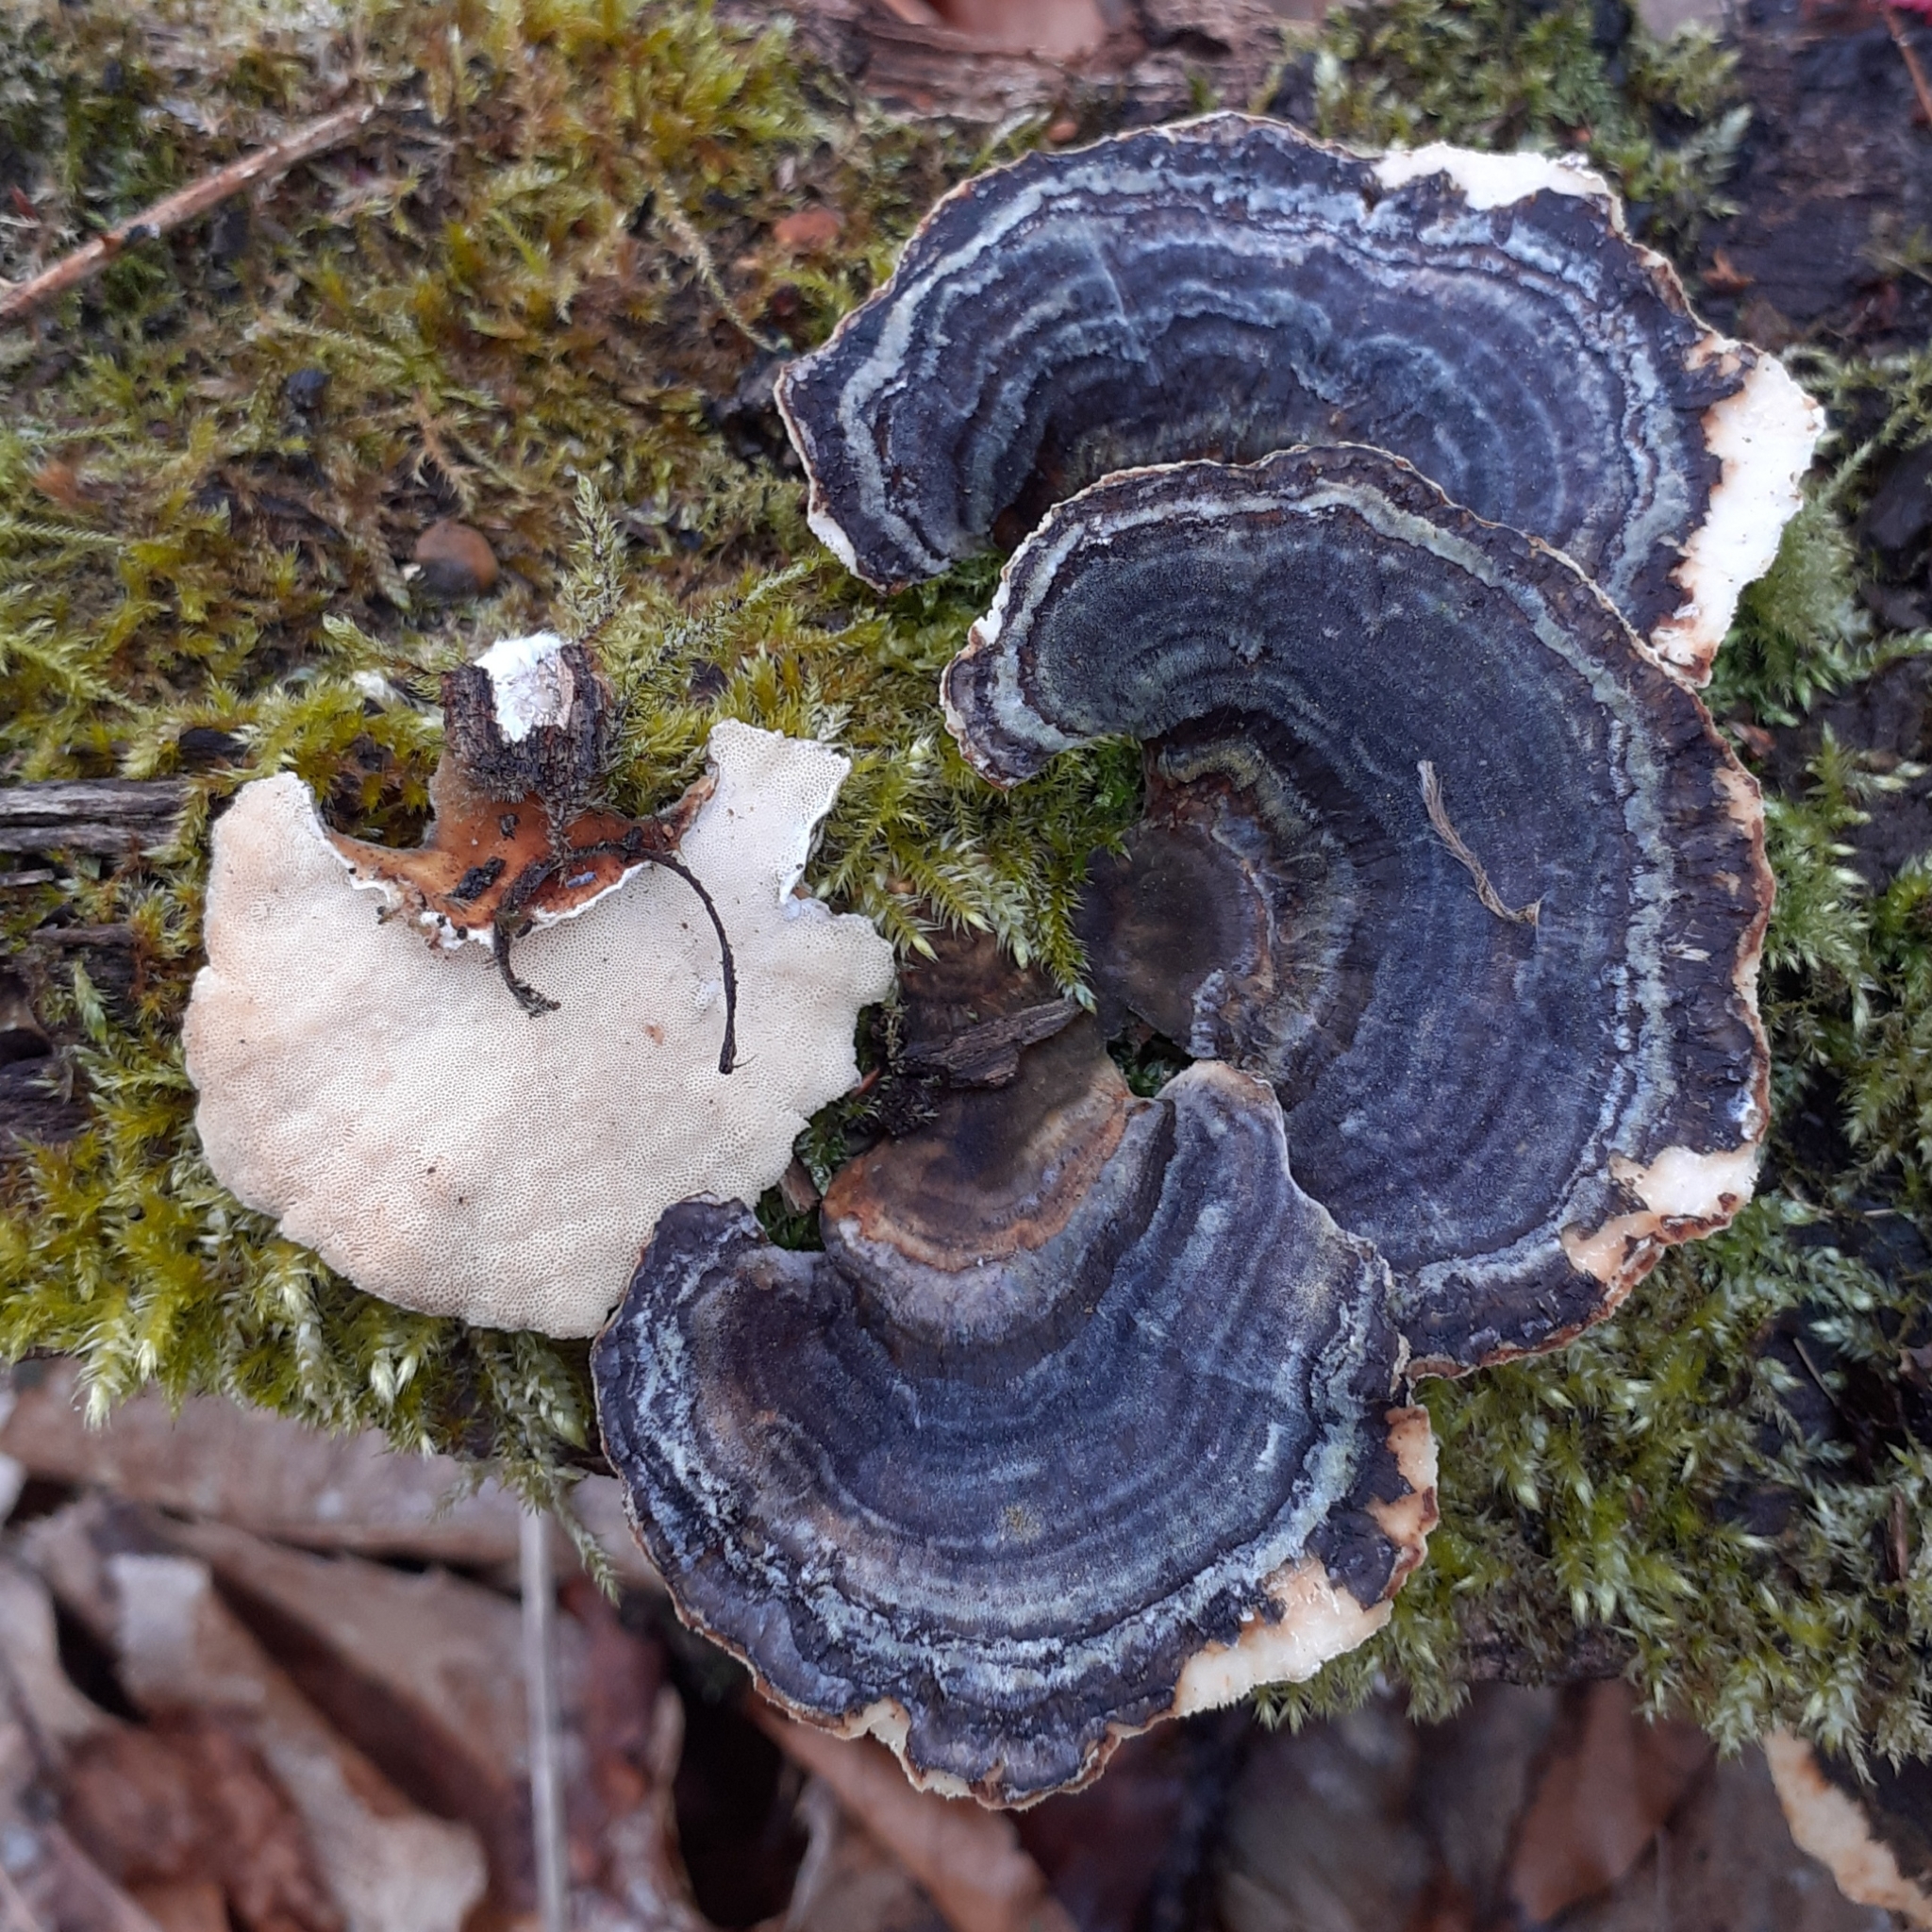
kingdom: Fungi
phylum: Basidiomycota
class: Agaricomycetes
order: Polyporales
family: Polyporaceae
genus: Trametes
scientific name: Trametes versicolor
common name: Turkeytail
